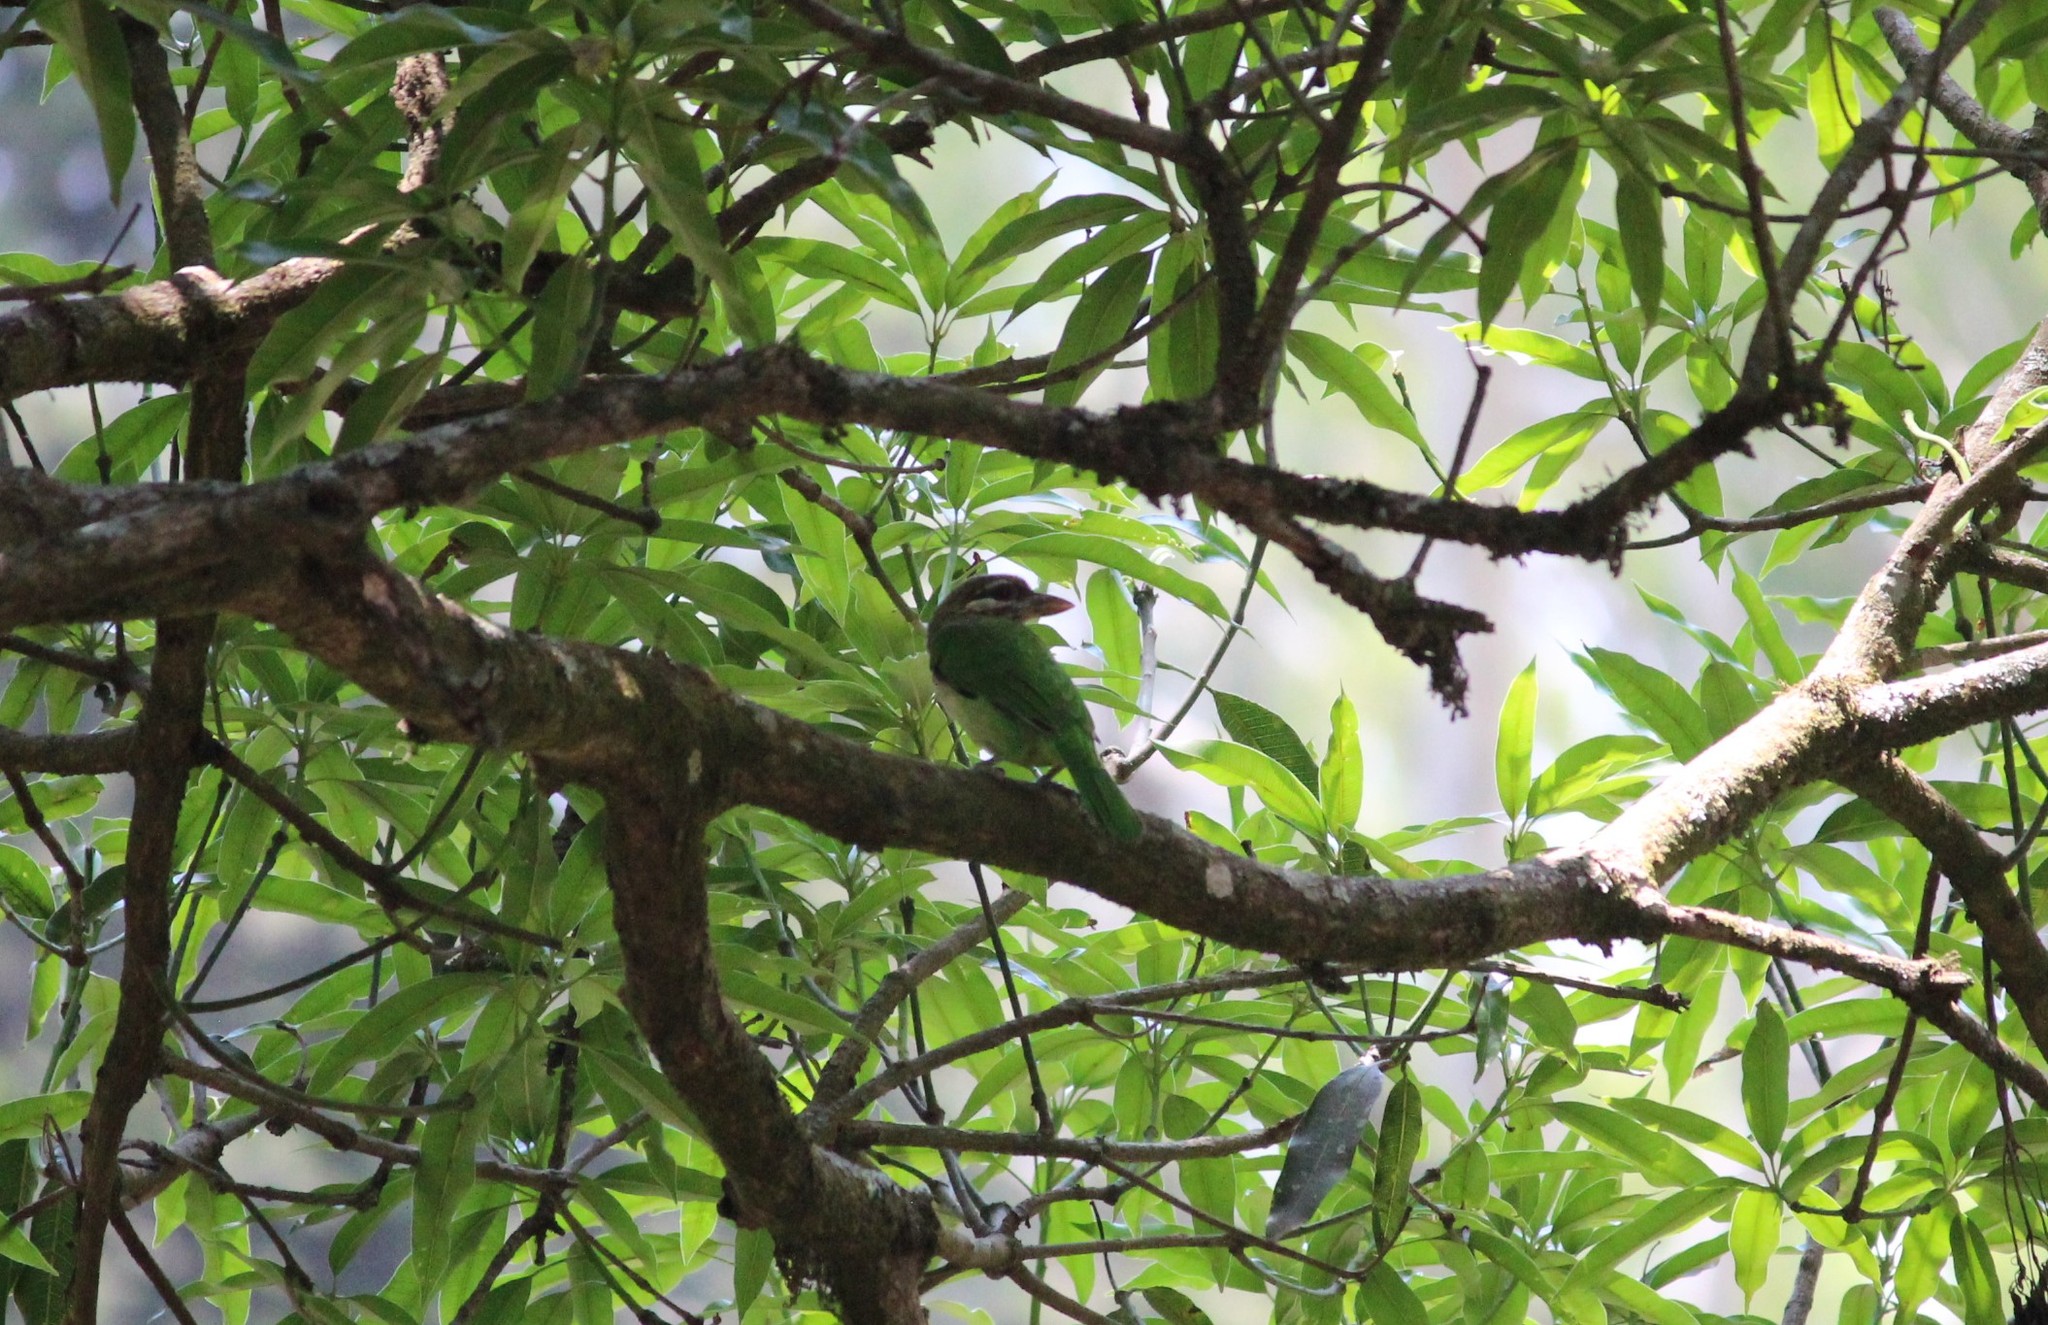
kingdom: Animalia
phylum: Chordata
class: Aves
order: Piciformes
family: Megalaimidae
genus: Psilopogon
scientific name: Psilopogon viridis
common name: White-cheeked barbet
